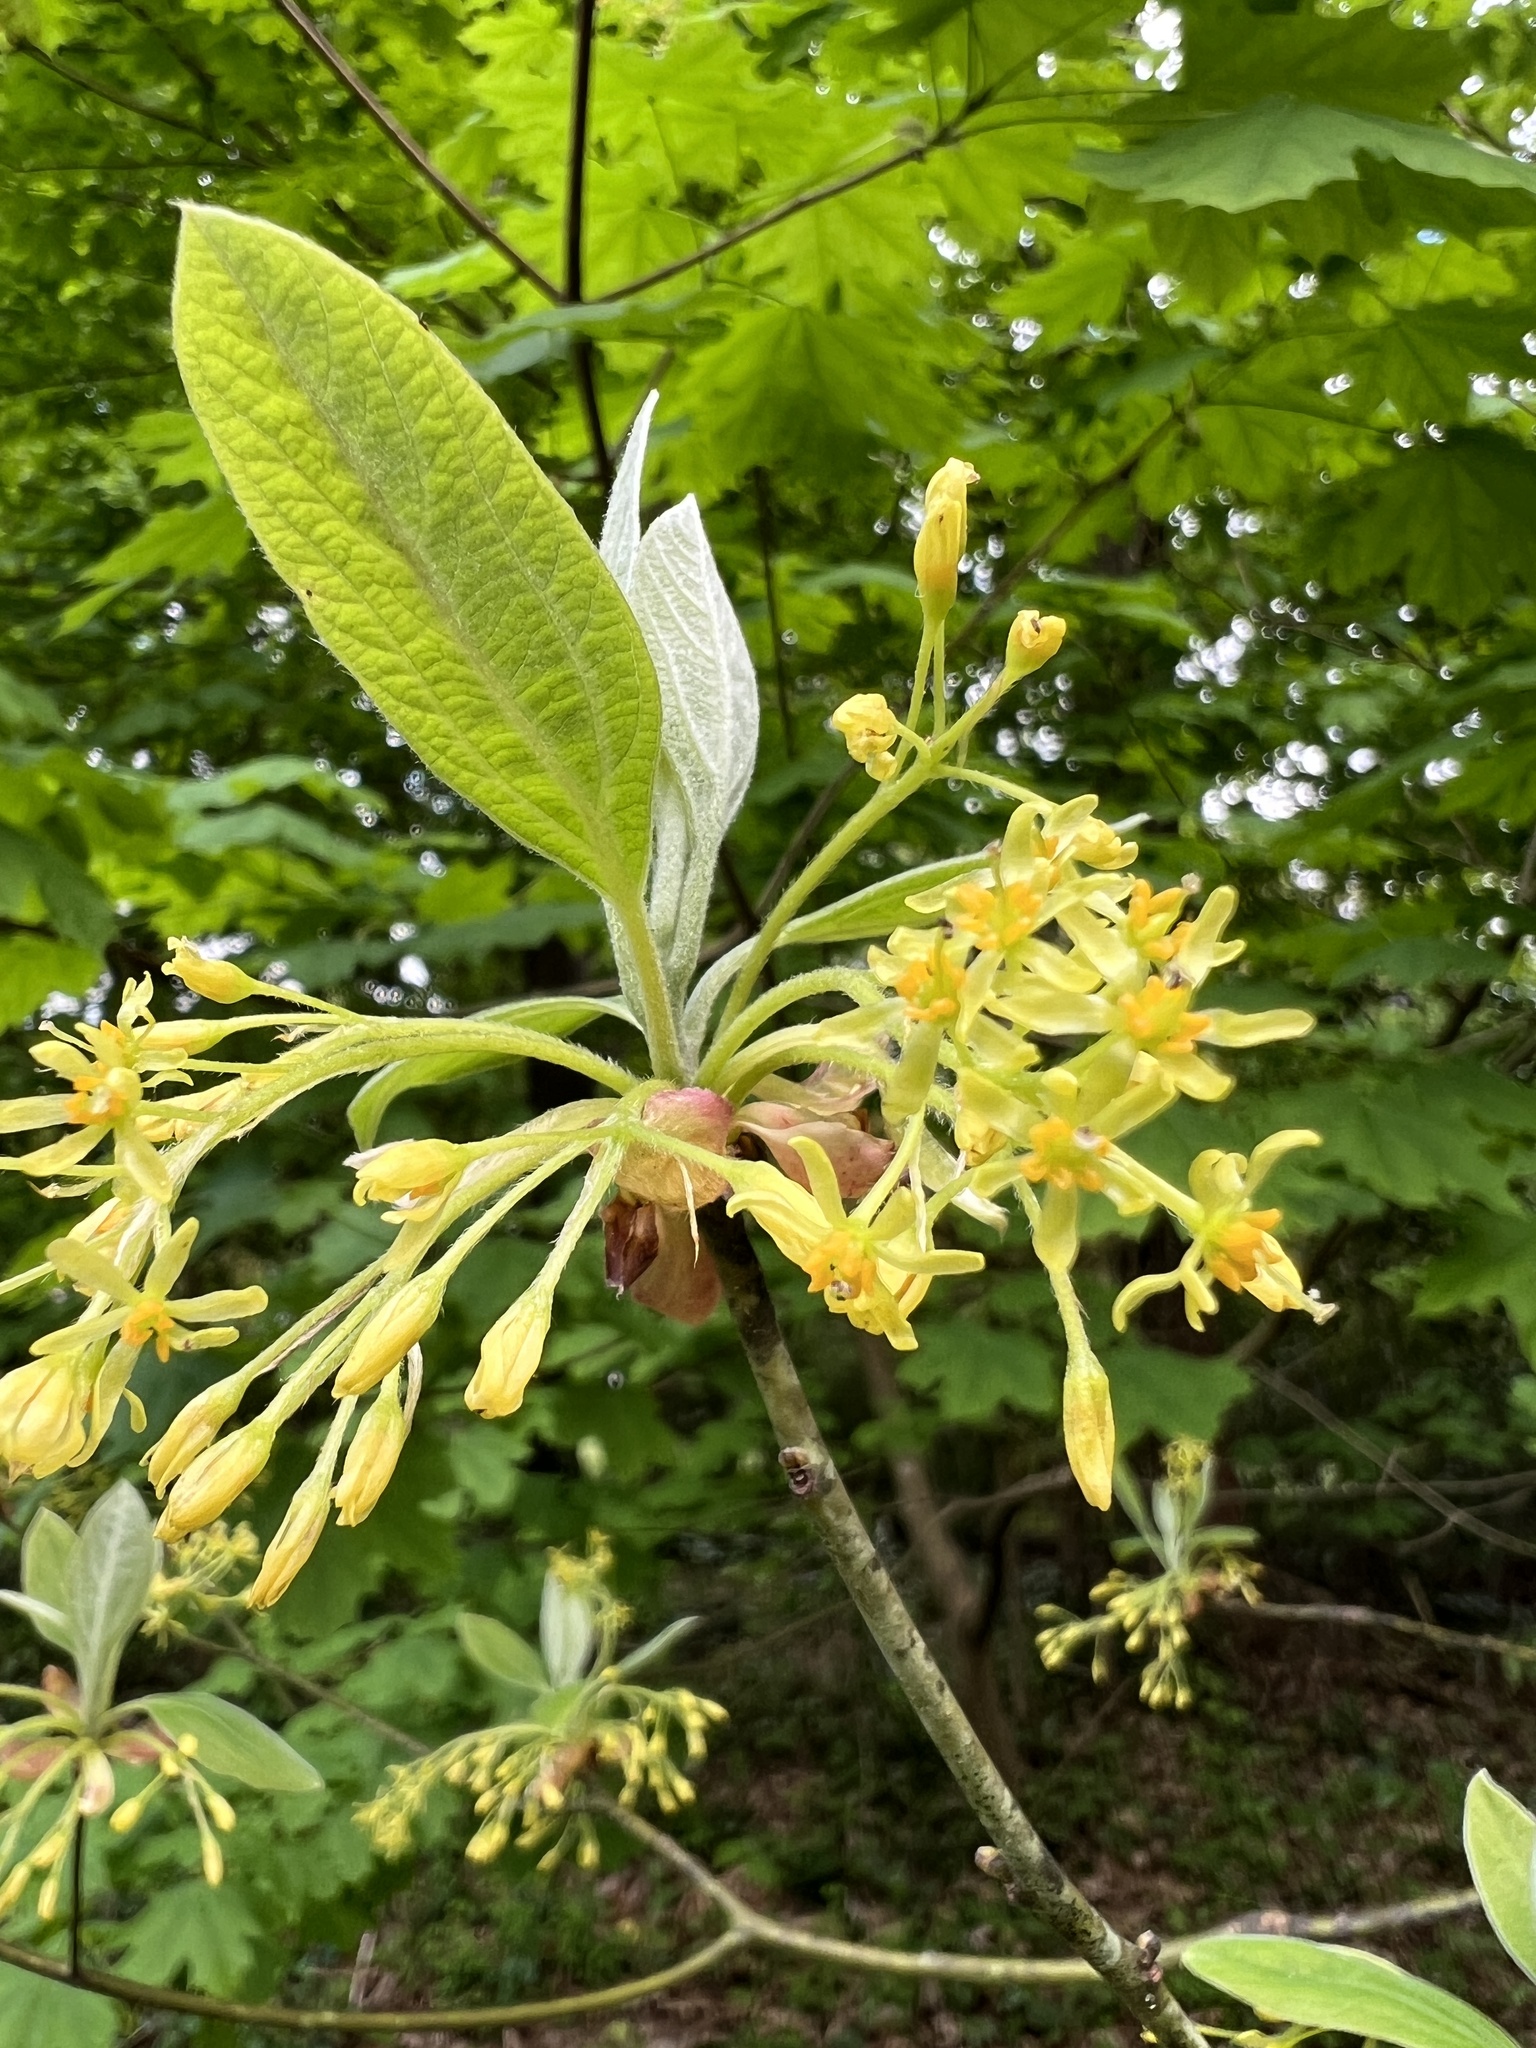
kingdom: Plantae
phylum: Tracheophyta
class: Magnoliopsida
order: Laurales
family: Lauraceae
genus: Sassafras
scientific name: Sassafras albidum
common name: Sassafras
